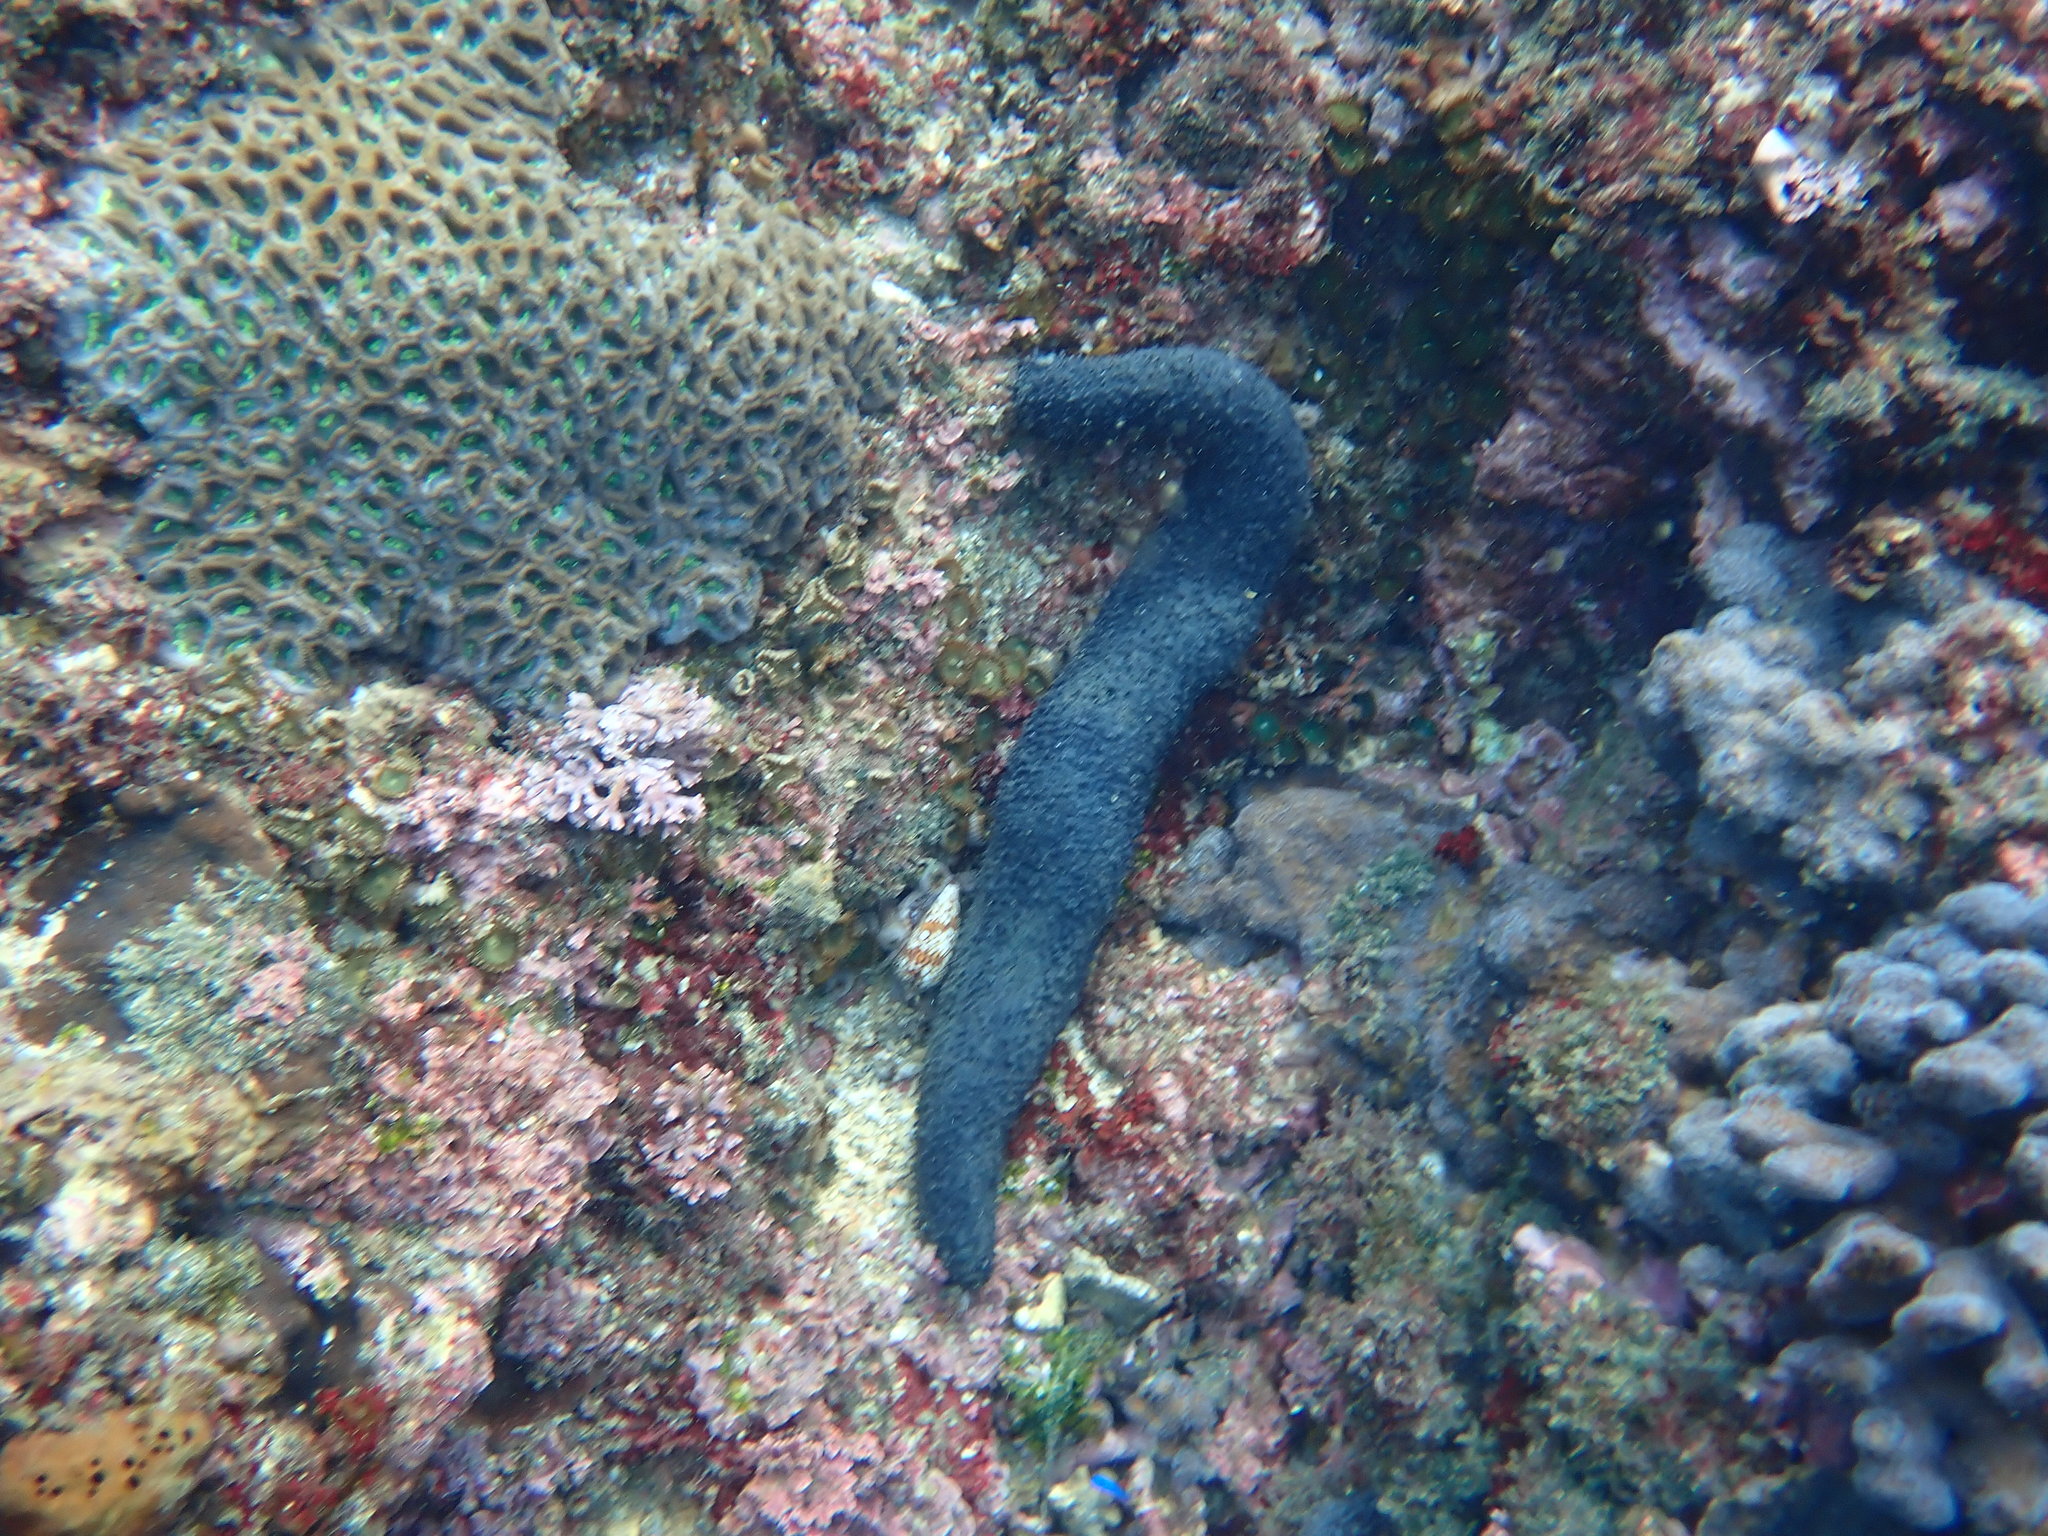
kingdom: Animalia
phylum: Echinodermata
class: Holothuroidea
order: Holothuriida
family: Holothuriidae
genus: Holothuria
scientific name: Holothuria leucospilota
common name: White thread fish
